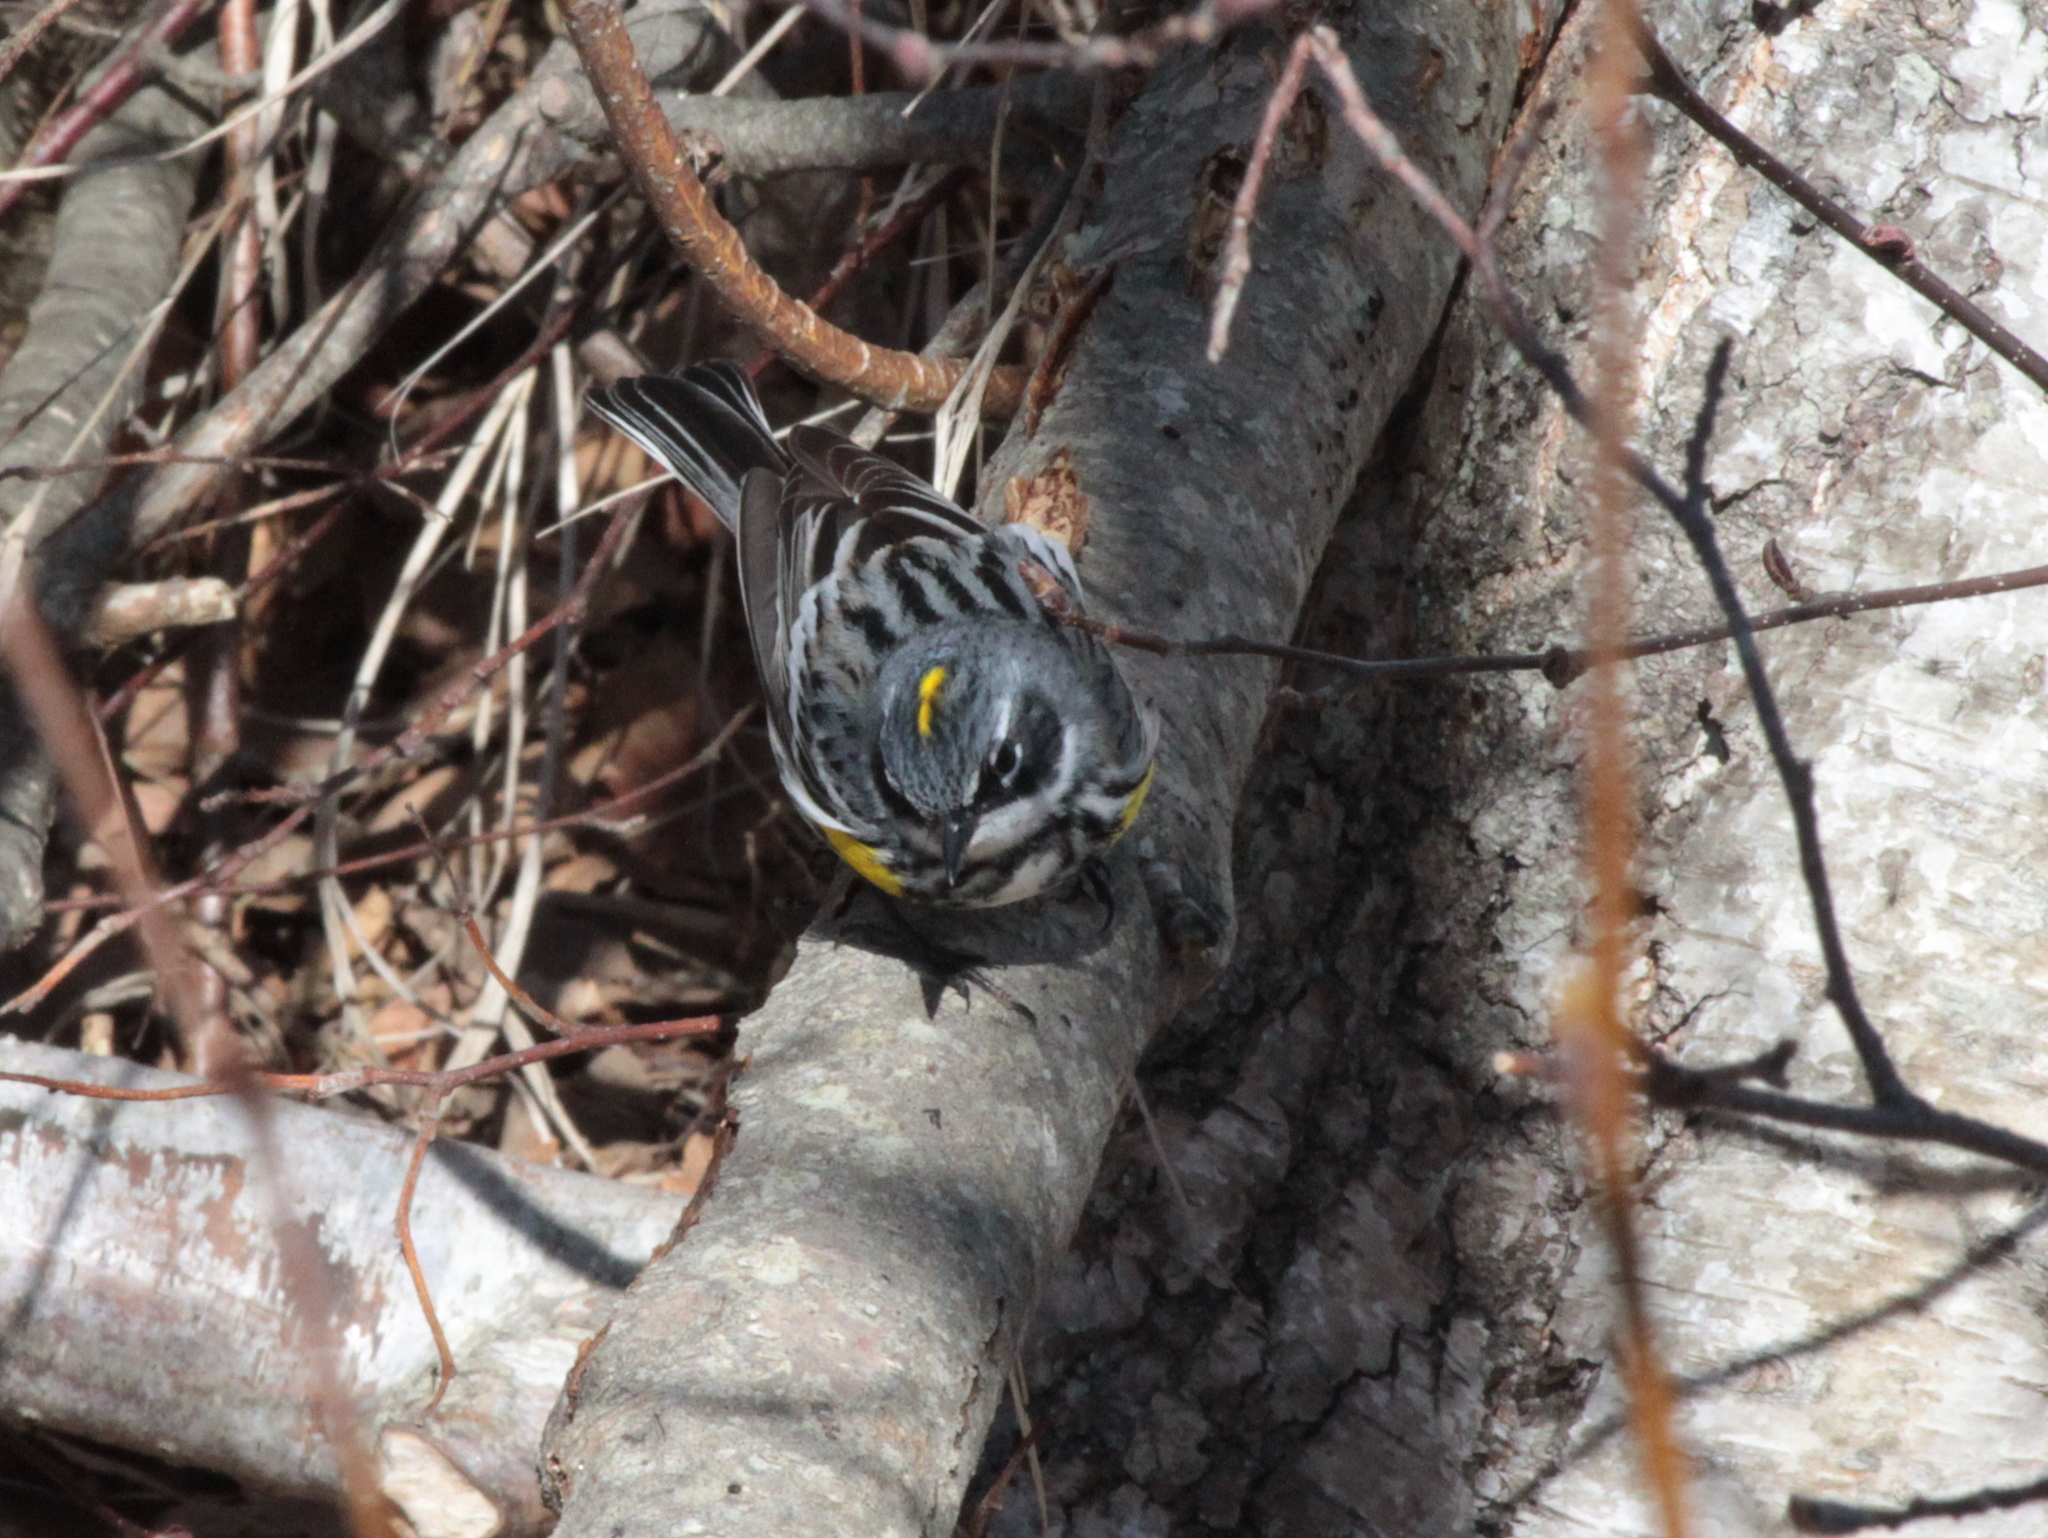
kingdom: Animalia
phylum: Chordata
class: Aves
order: Passeriformes
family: Parulidae
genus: Setophaga
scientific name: Setophaga coronata
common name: Myrtle warbler
